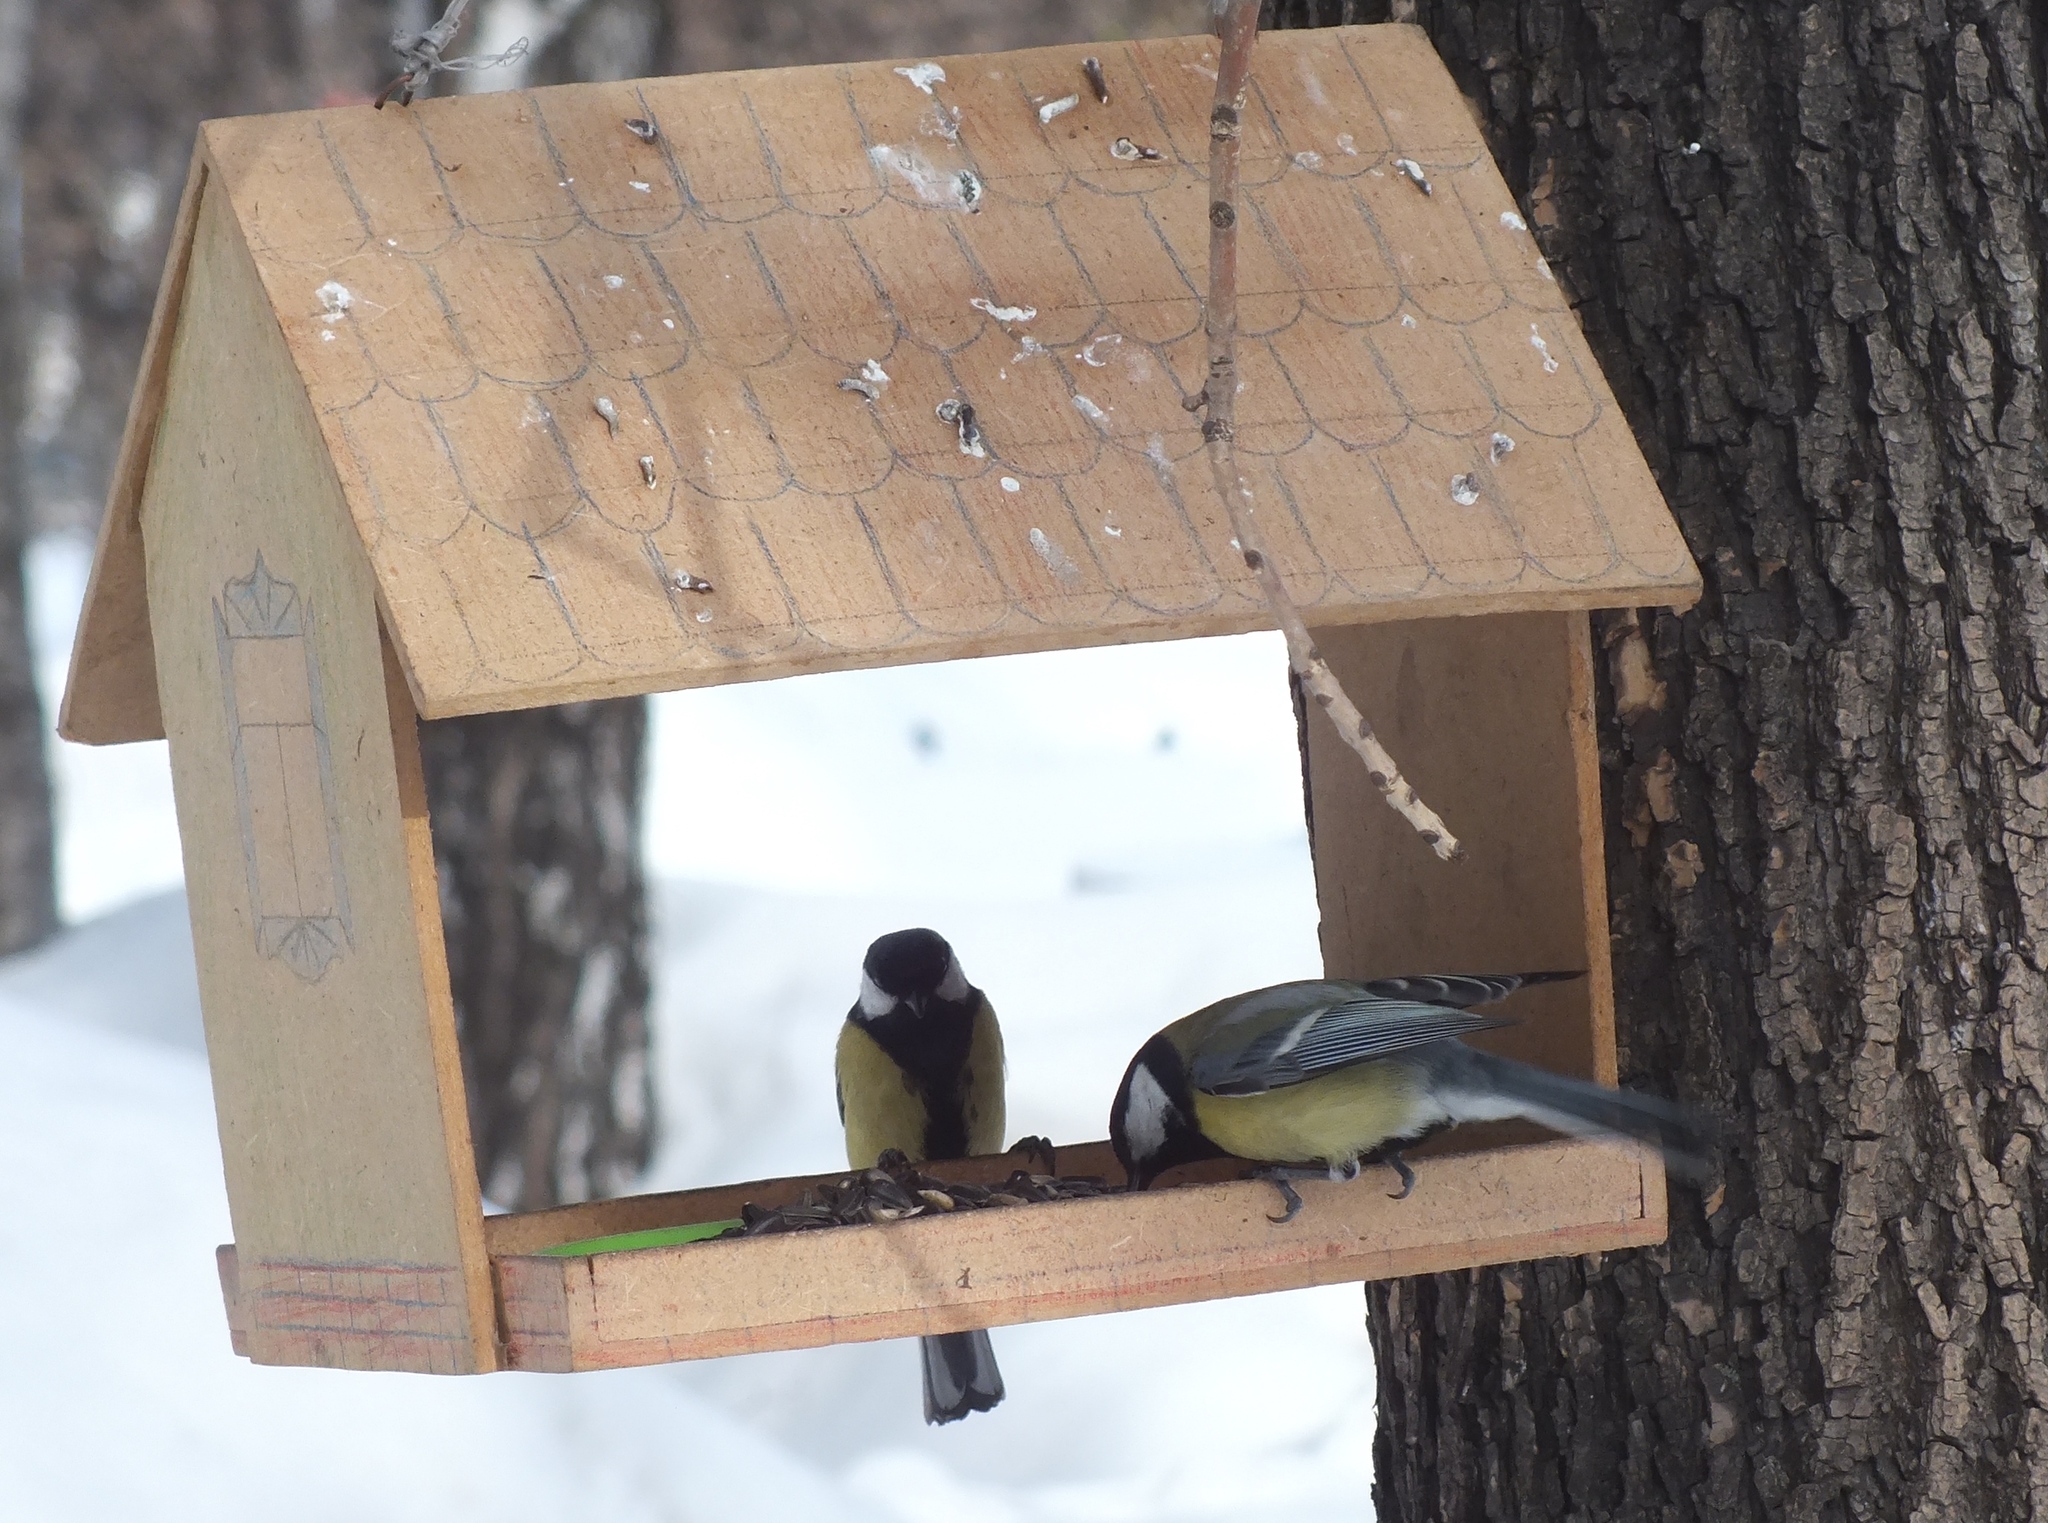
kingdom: Animalia
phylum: Chordata
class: Aves
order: Passeriformes
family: Paridae
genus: Parus
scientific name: Parus major
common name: Great tit
